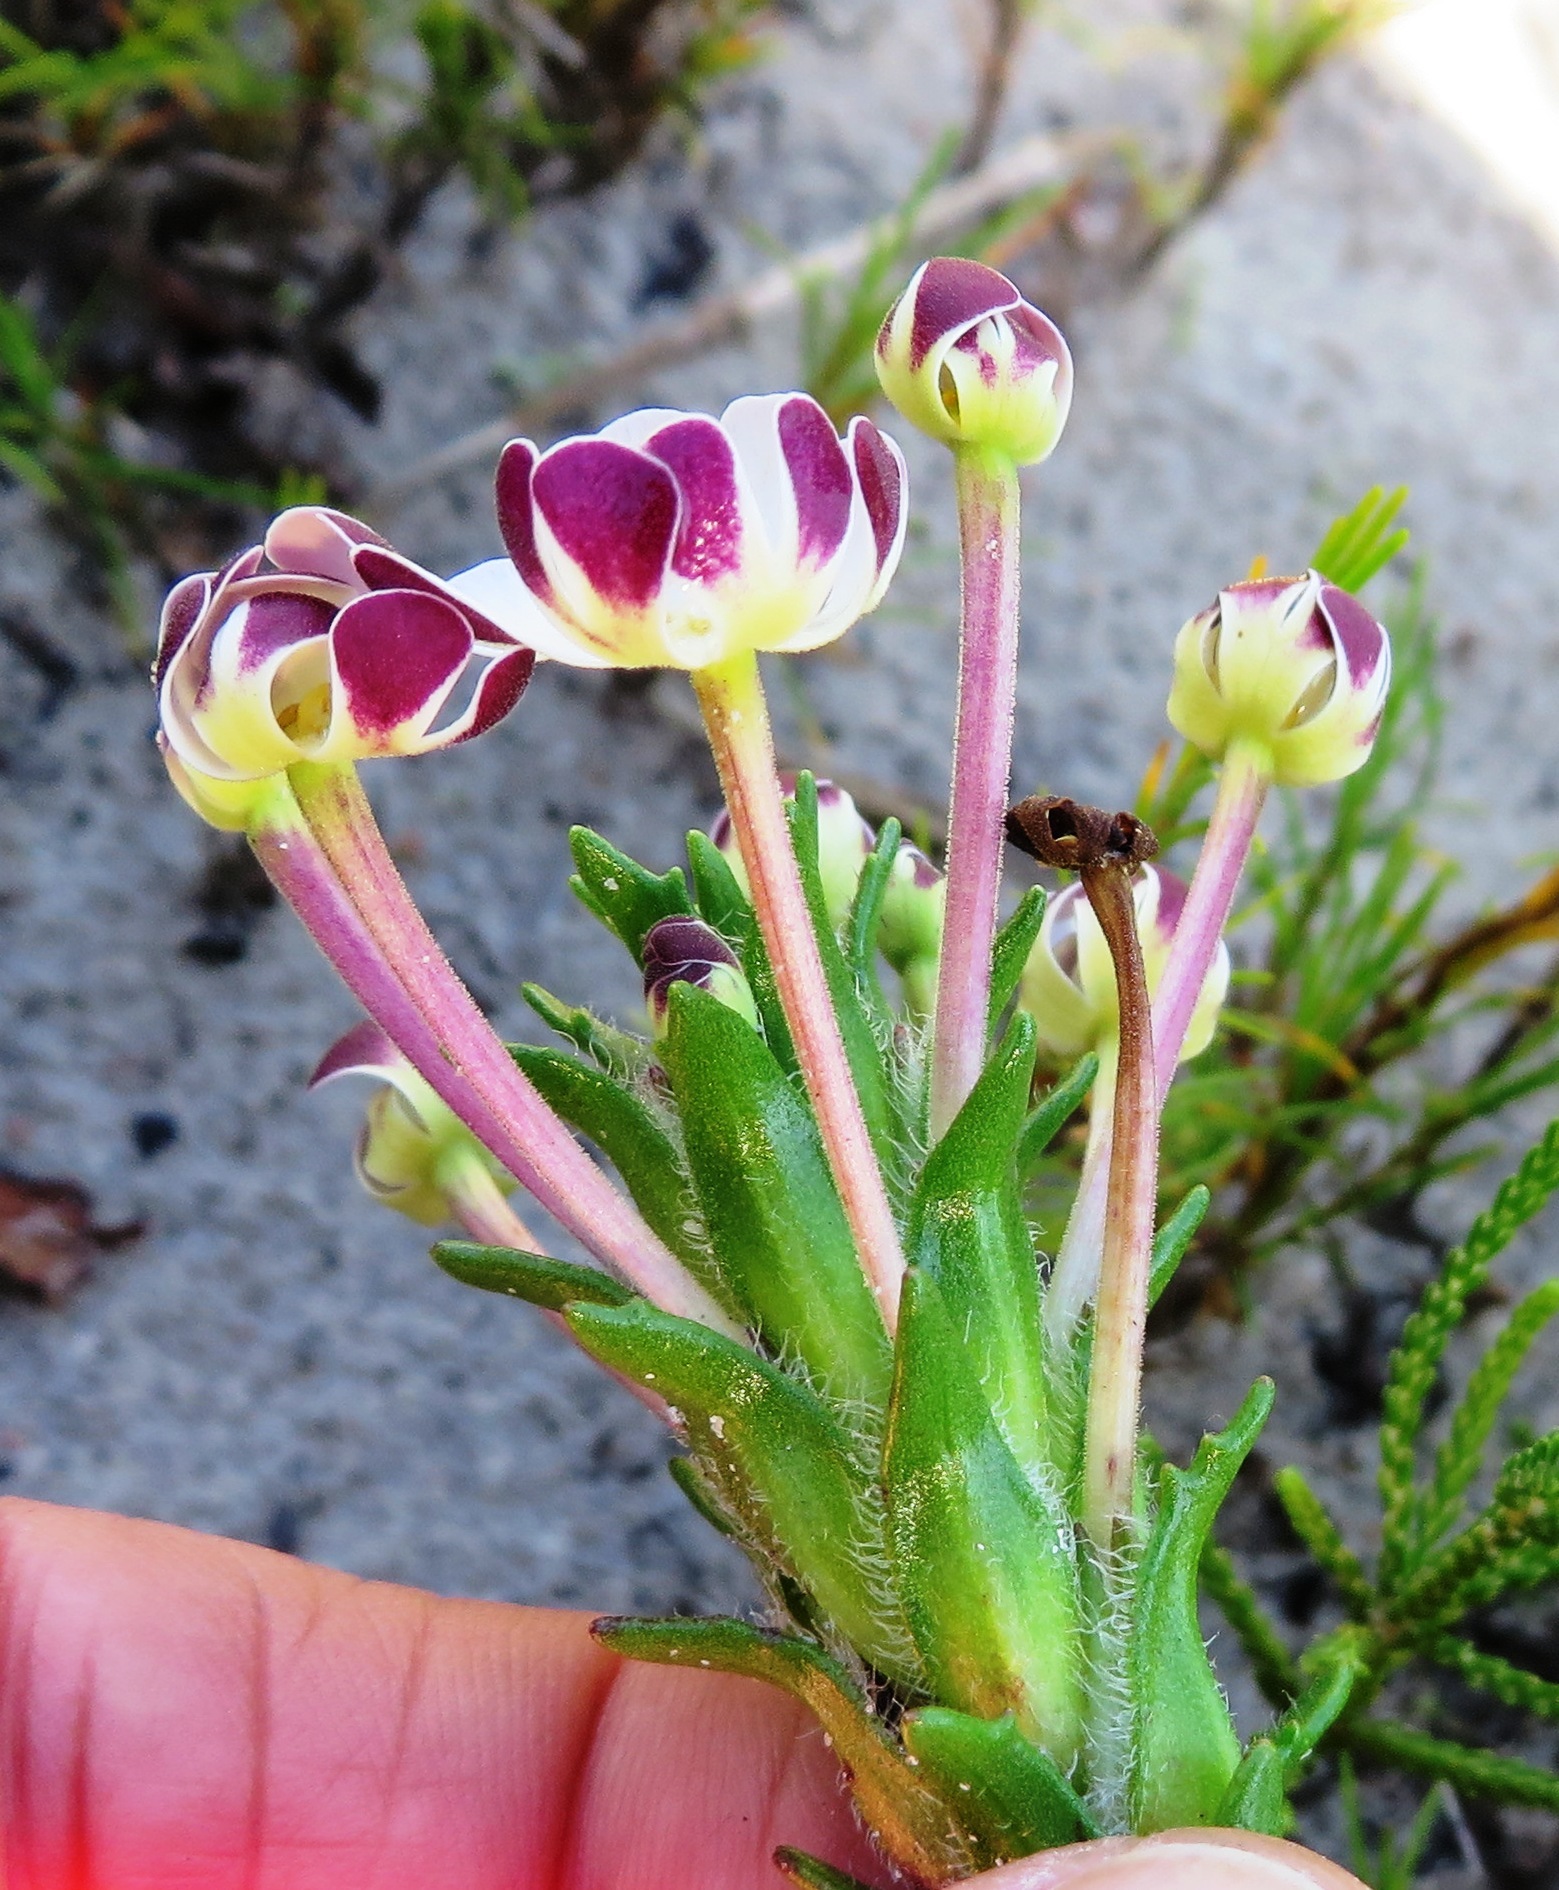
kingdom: Plantae
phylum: Tracheophyta
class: Magnoliopsida
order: Lamiales
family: Scrophulariaceae
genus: Zaluzianskya
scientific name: Zaluzianskya capensis
